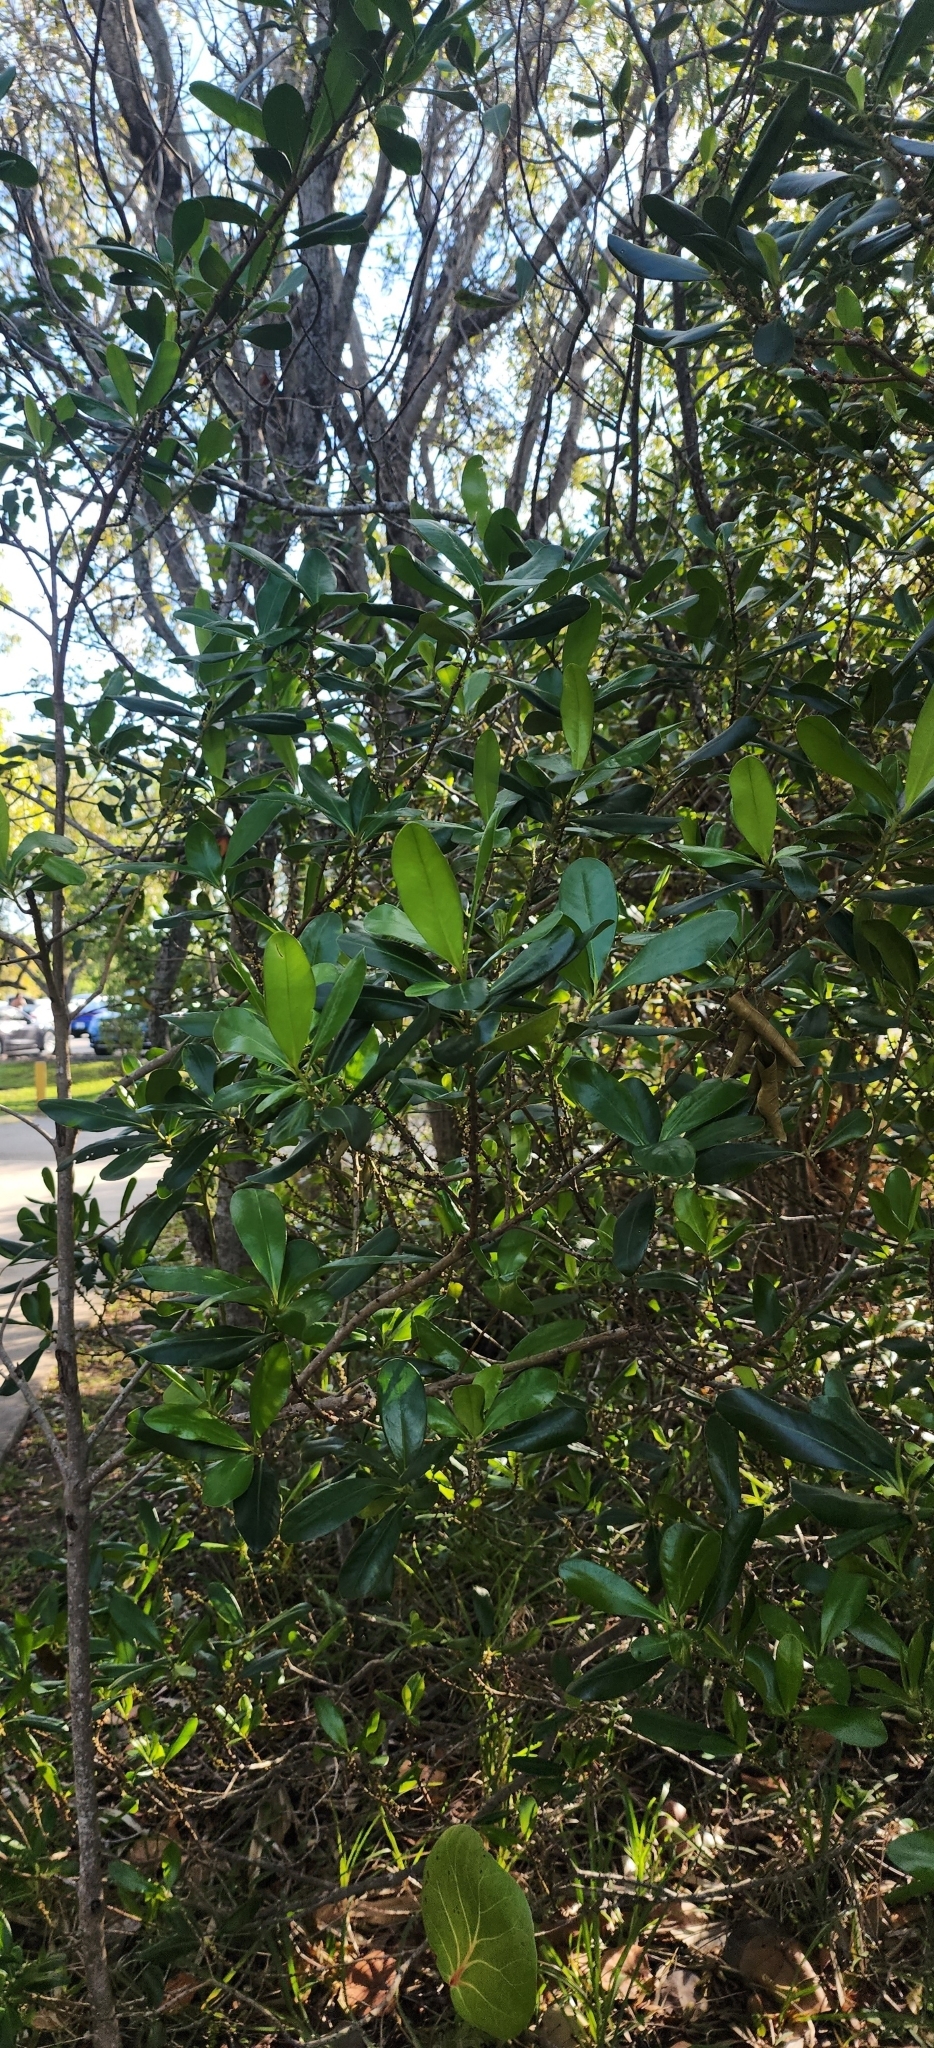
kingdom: Plantae
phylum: Tracheophyta
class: Magnoliopsida
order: Ericales
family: Primulaceae
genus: Myrsine
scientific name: Myrsine floridana
